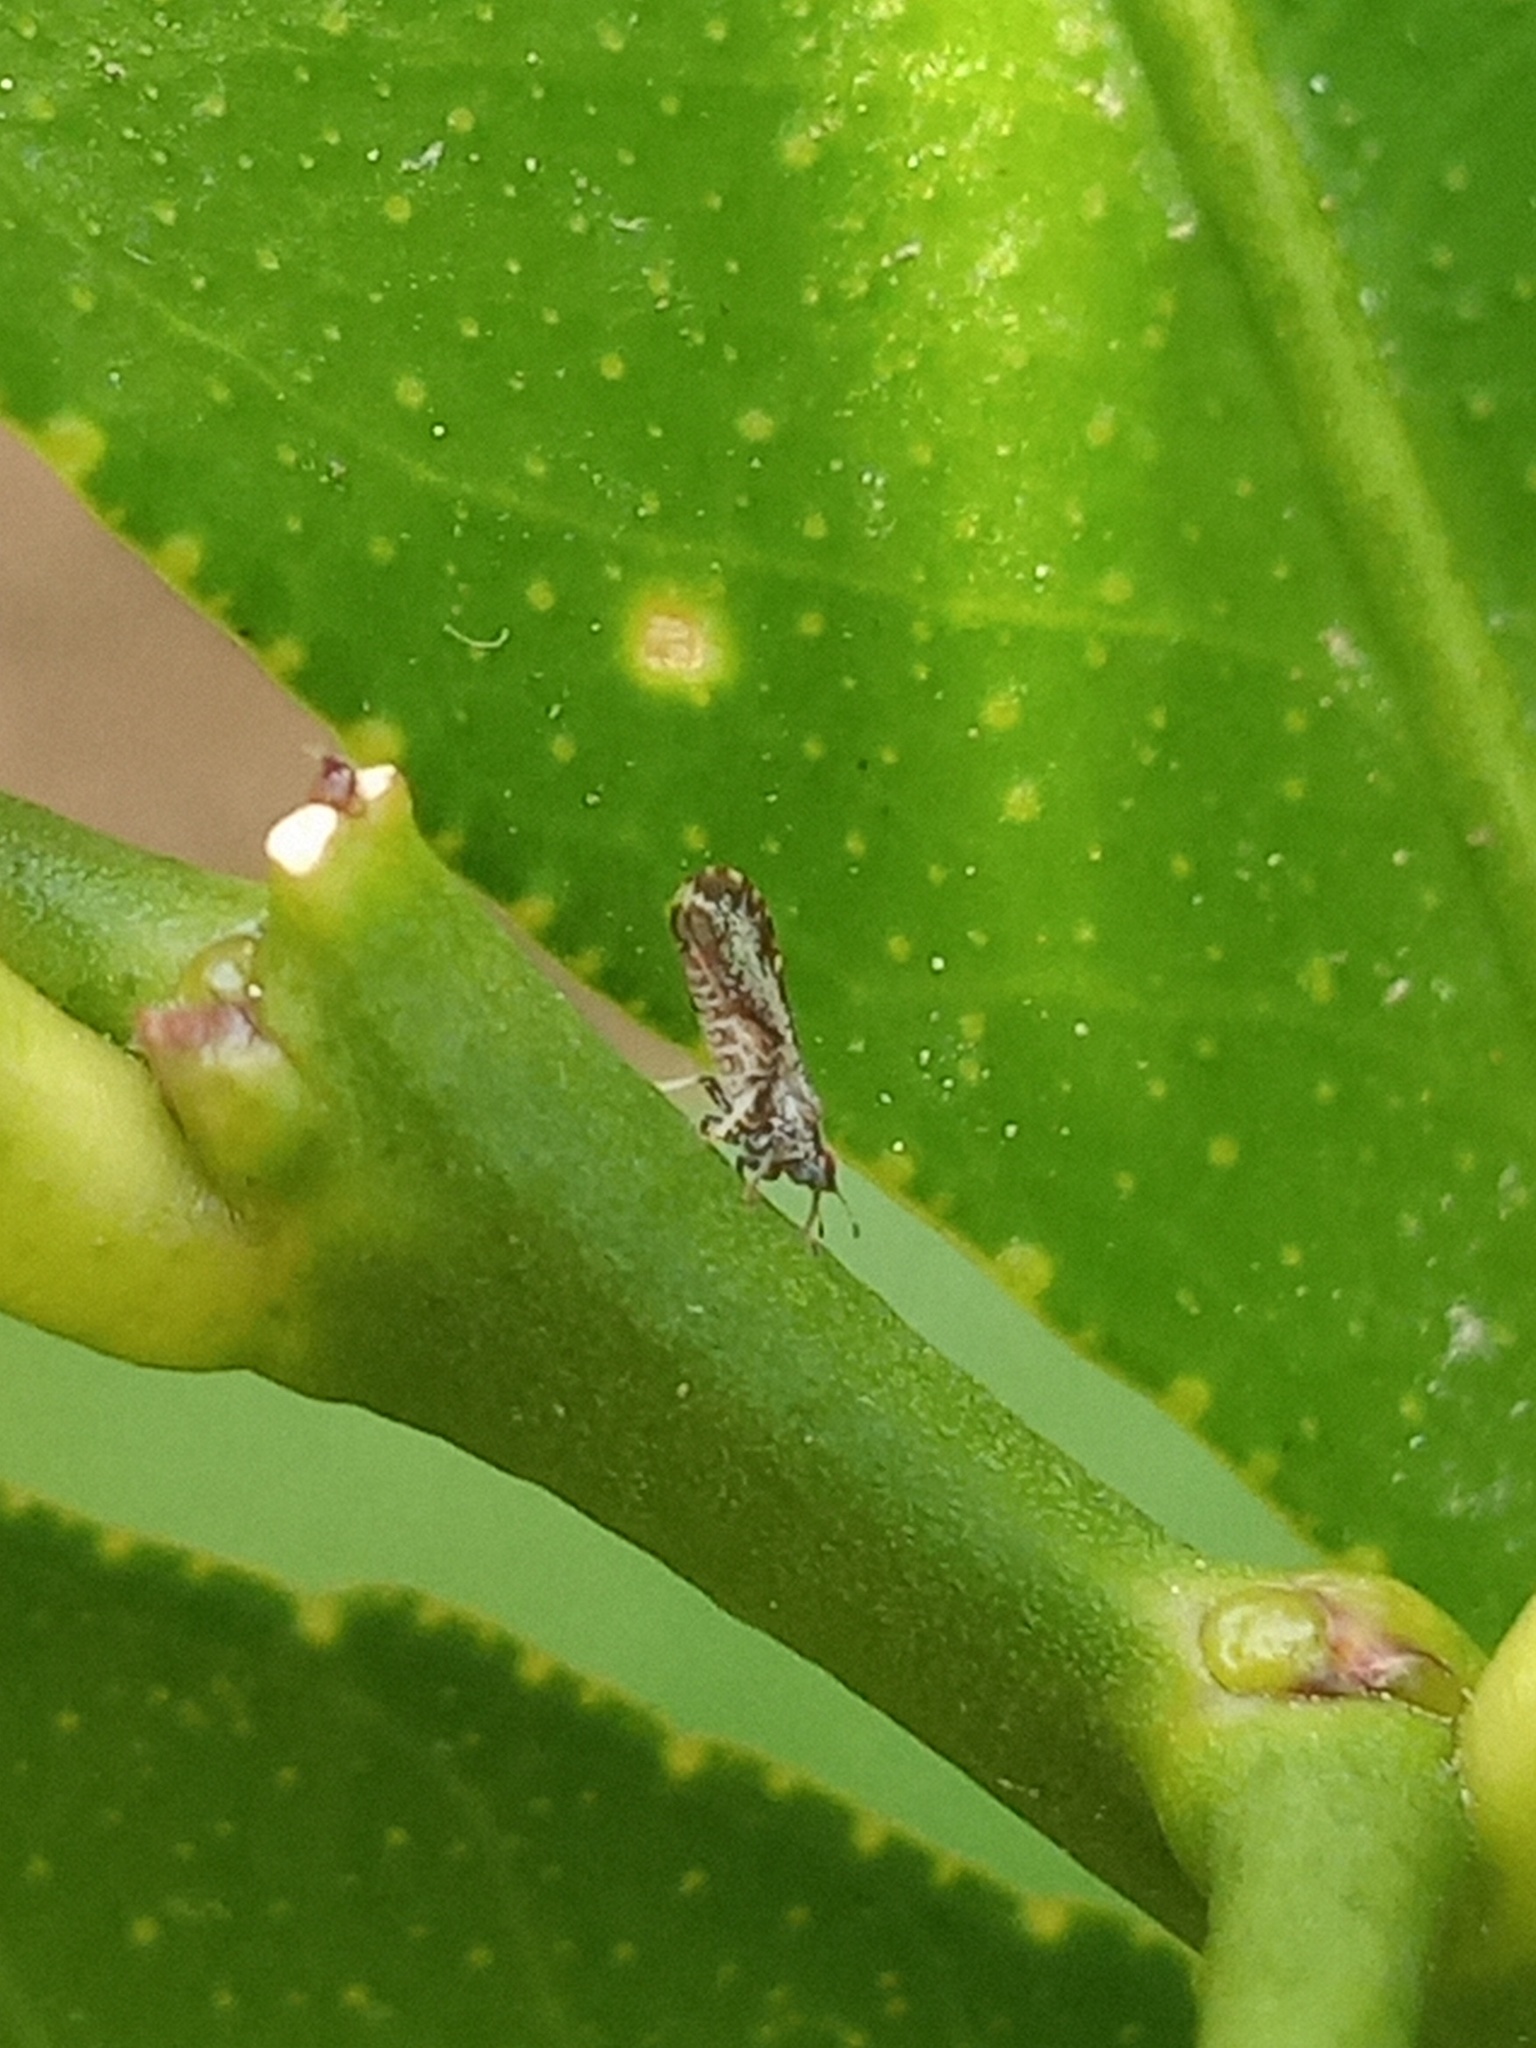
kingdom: Animalia
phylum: Arthropoda
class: Insecta
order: Hemiptera
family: Liviidae
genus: Diaphorina
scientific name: Diaphorina citri
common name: Asian citrus psyllid
